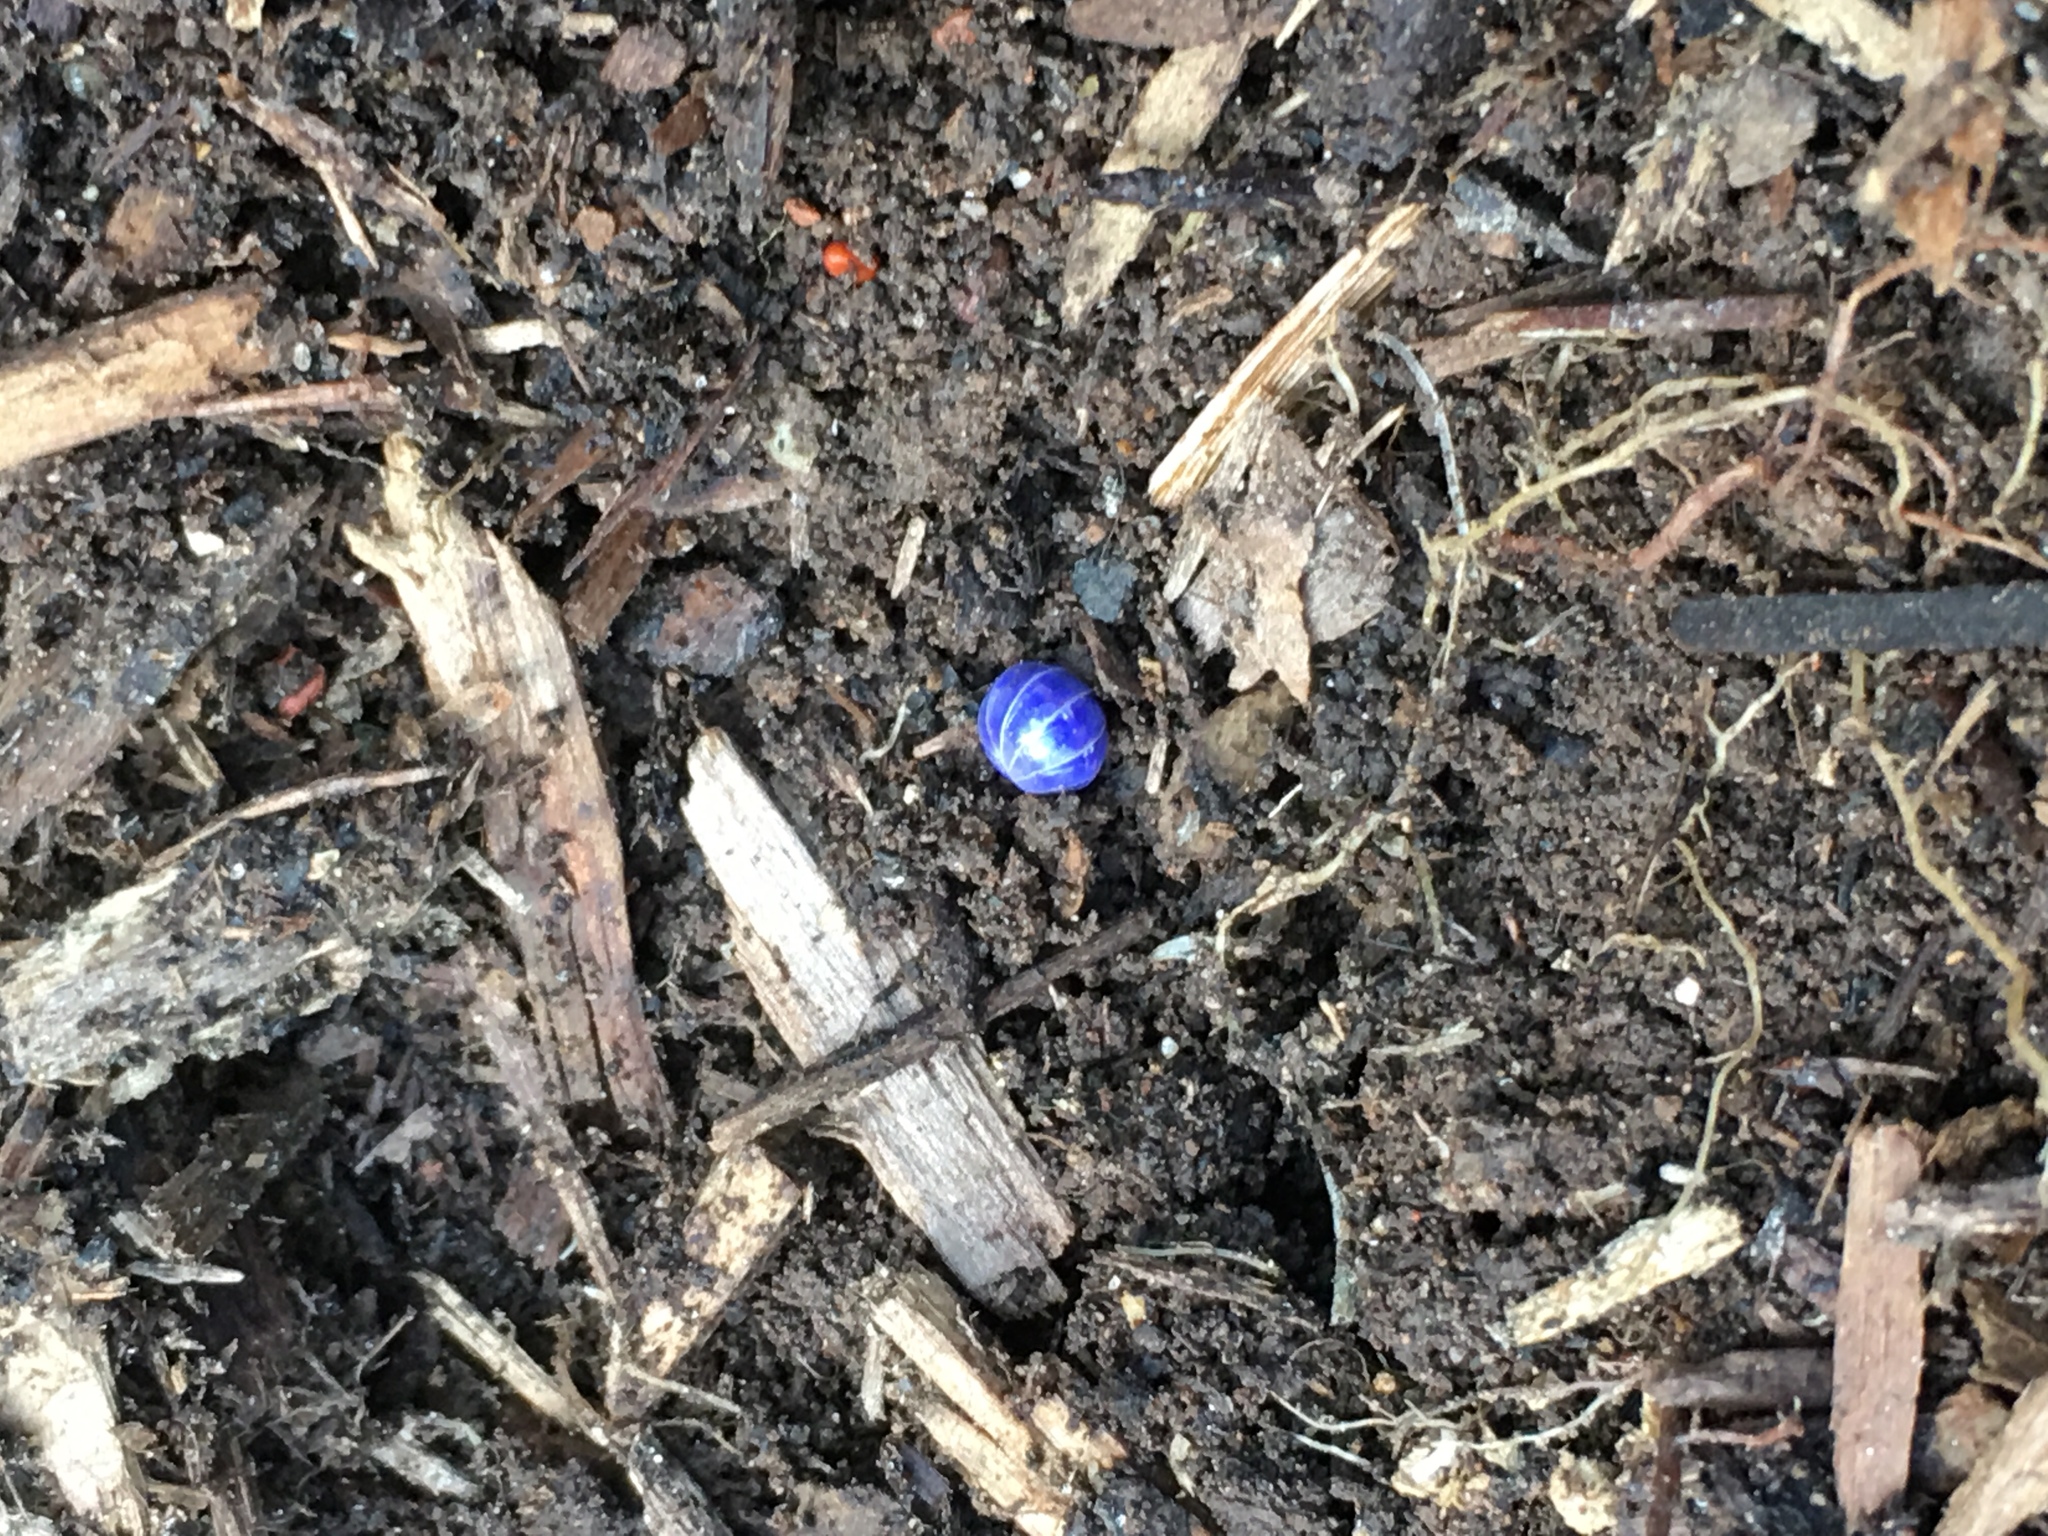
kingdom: Viruses
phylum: Nucleocytoviricota
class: Megaviricetes
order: Pimascovirales
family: Iridoviridae
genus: Iridovirus
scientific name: Iridovirus Invertebrate iridescent virus 31
